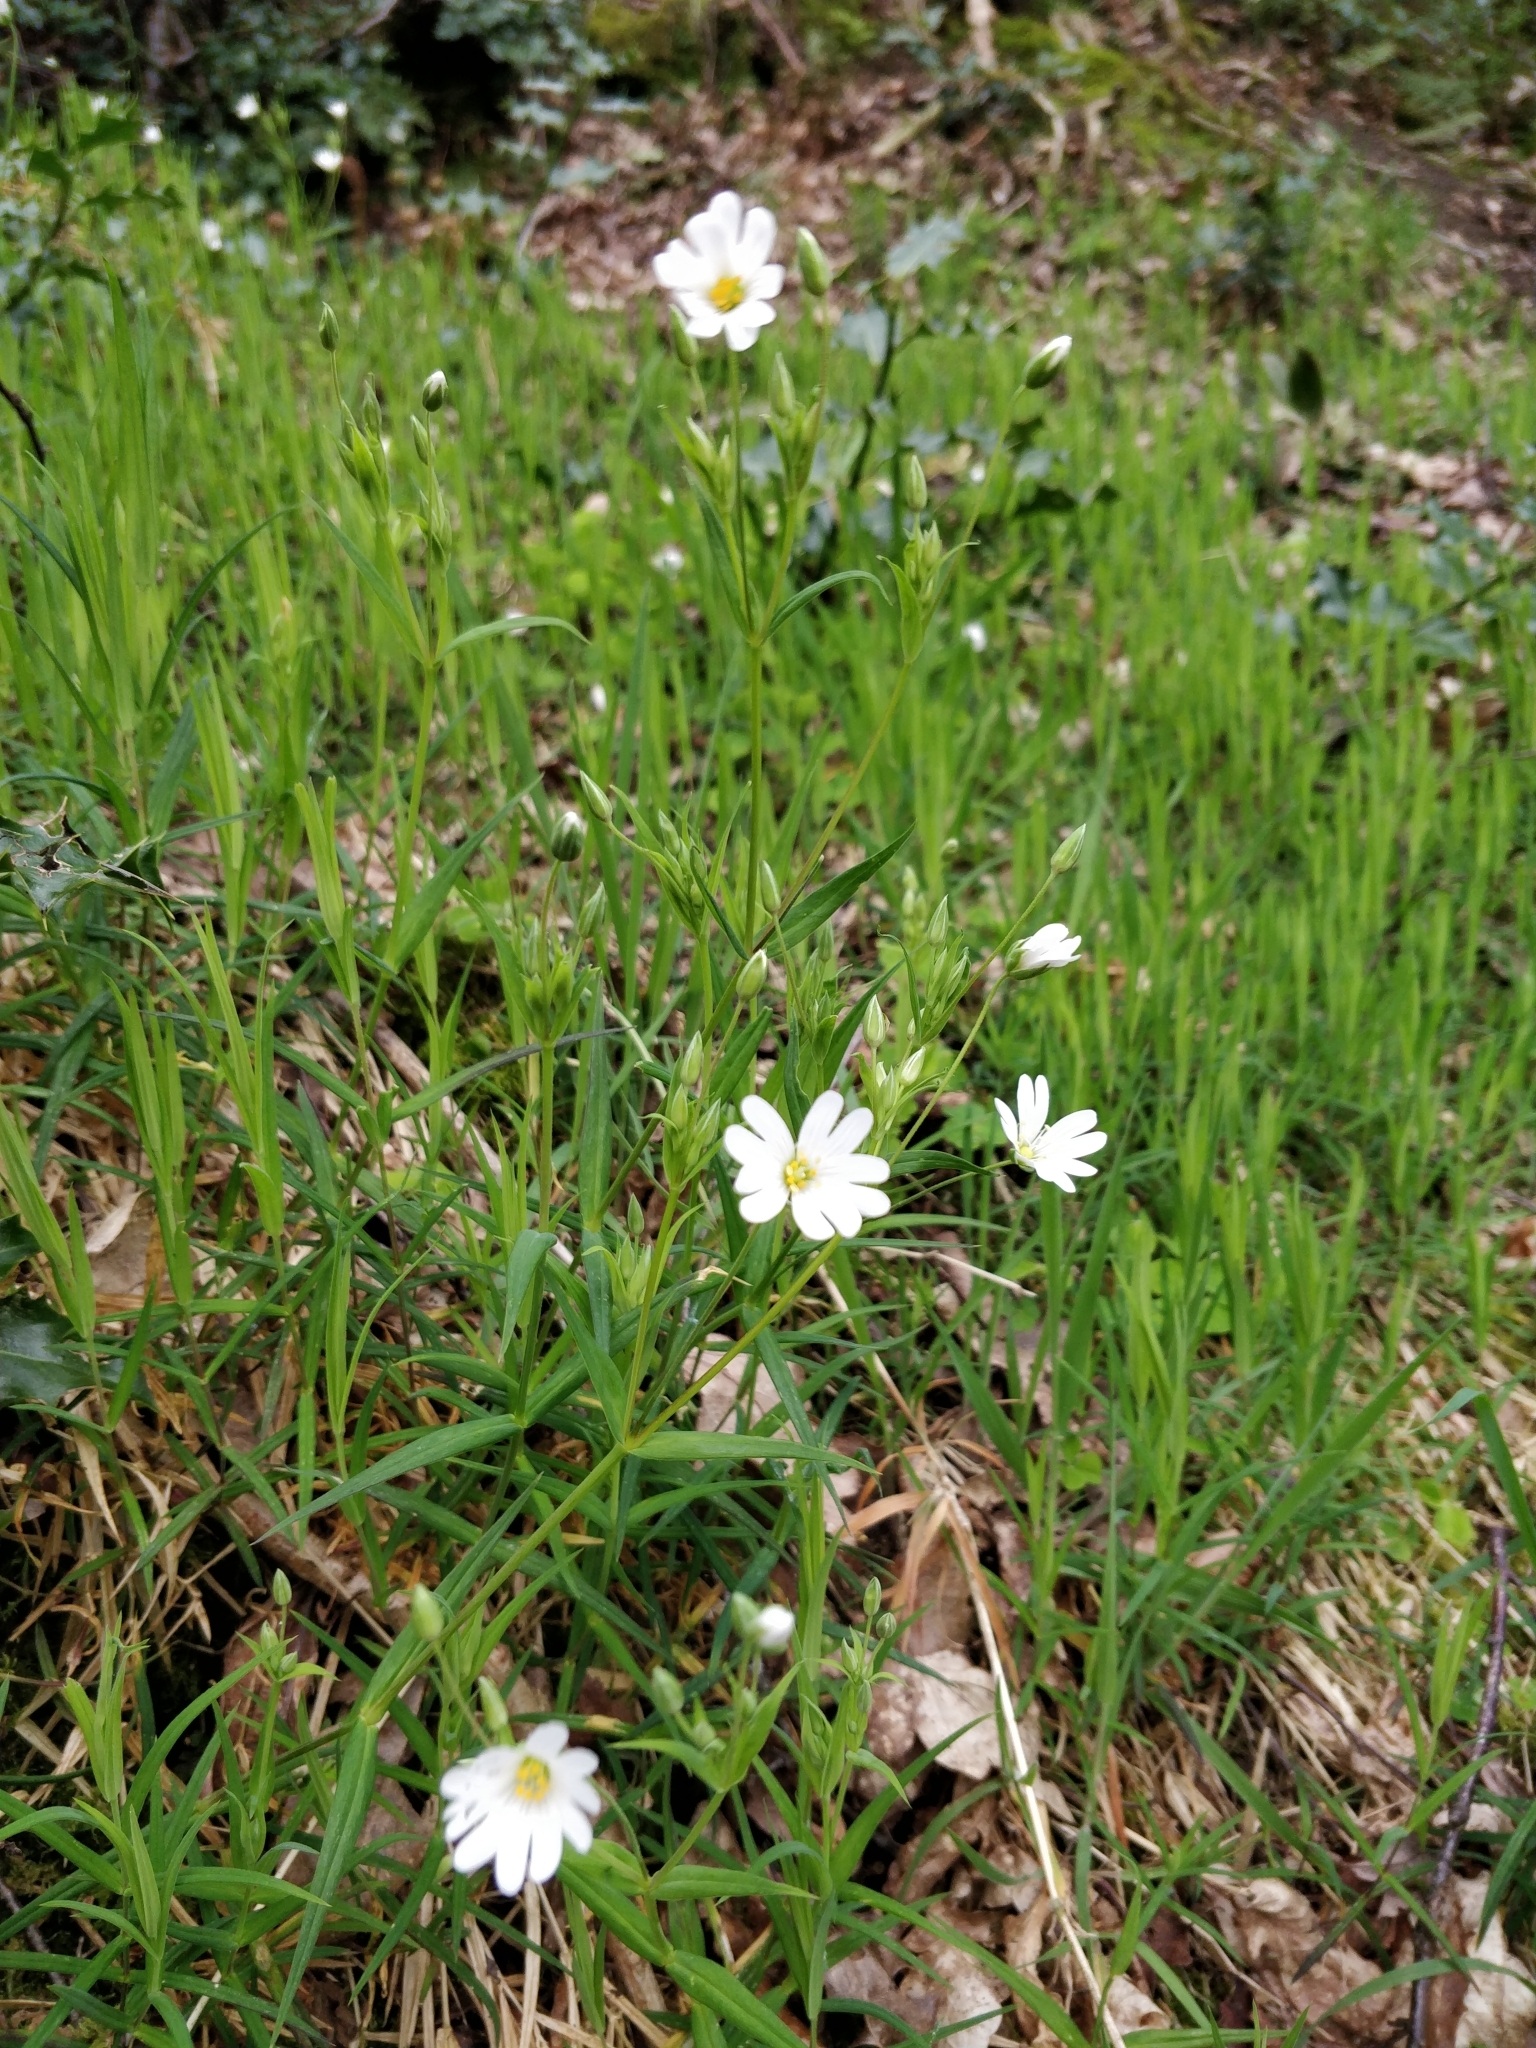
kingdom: Plantae
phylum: Tracheophyta
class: Magnoliopsida
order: Caryophyllales
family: Caryophyllaceae
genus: Rabelera
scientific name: Rabelera holostea
